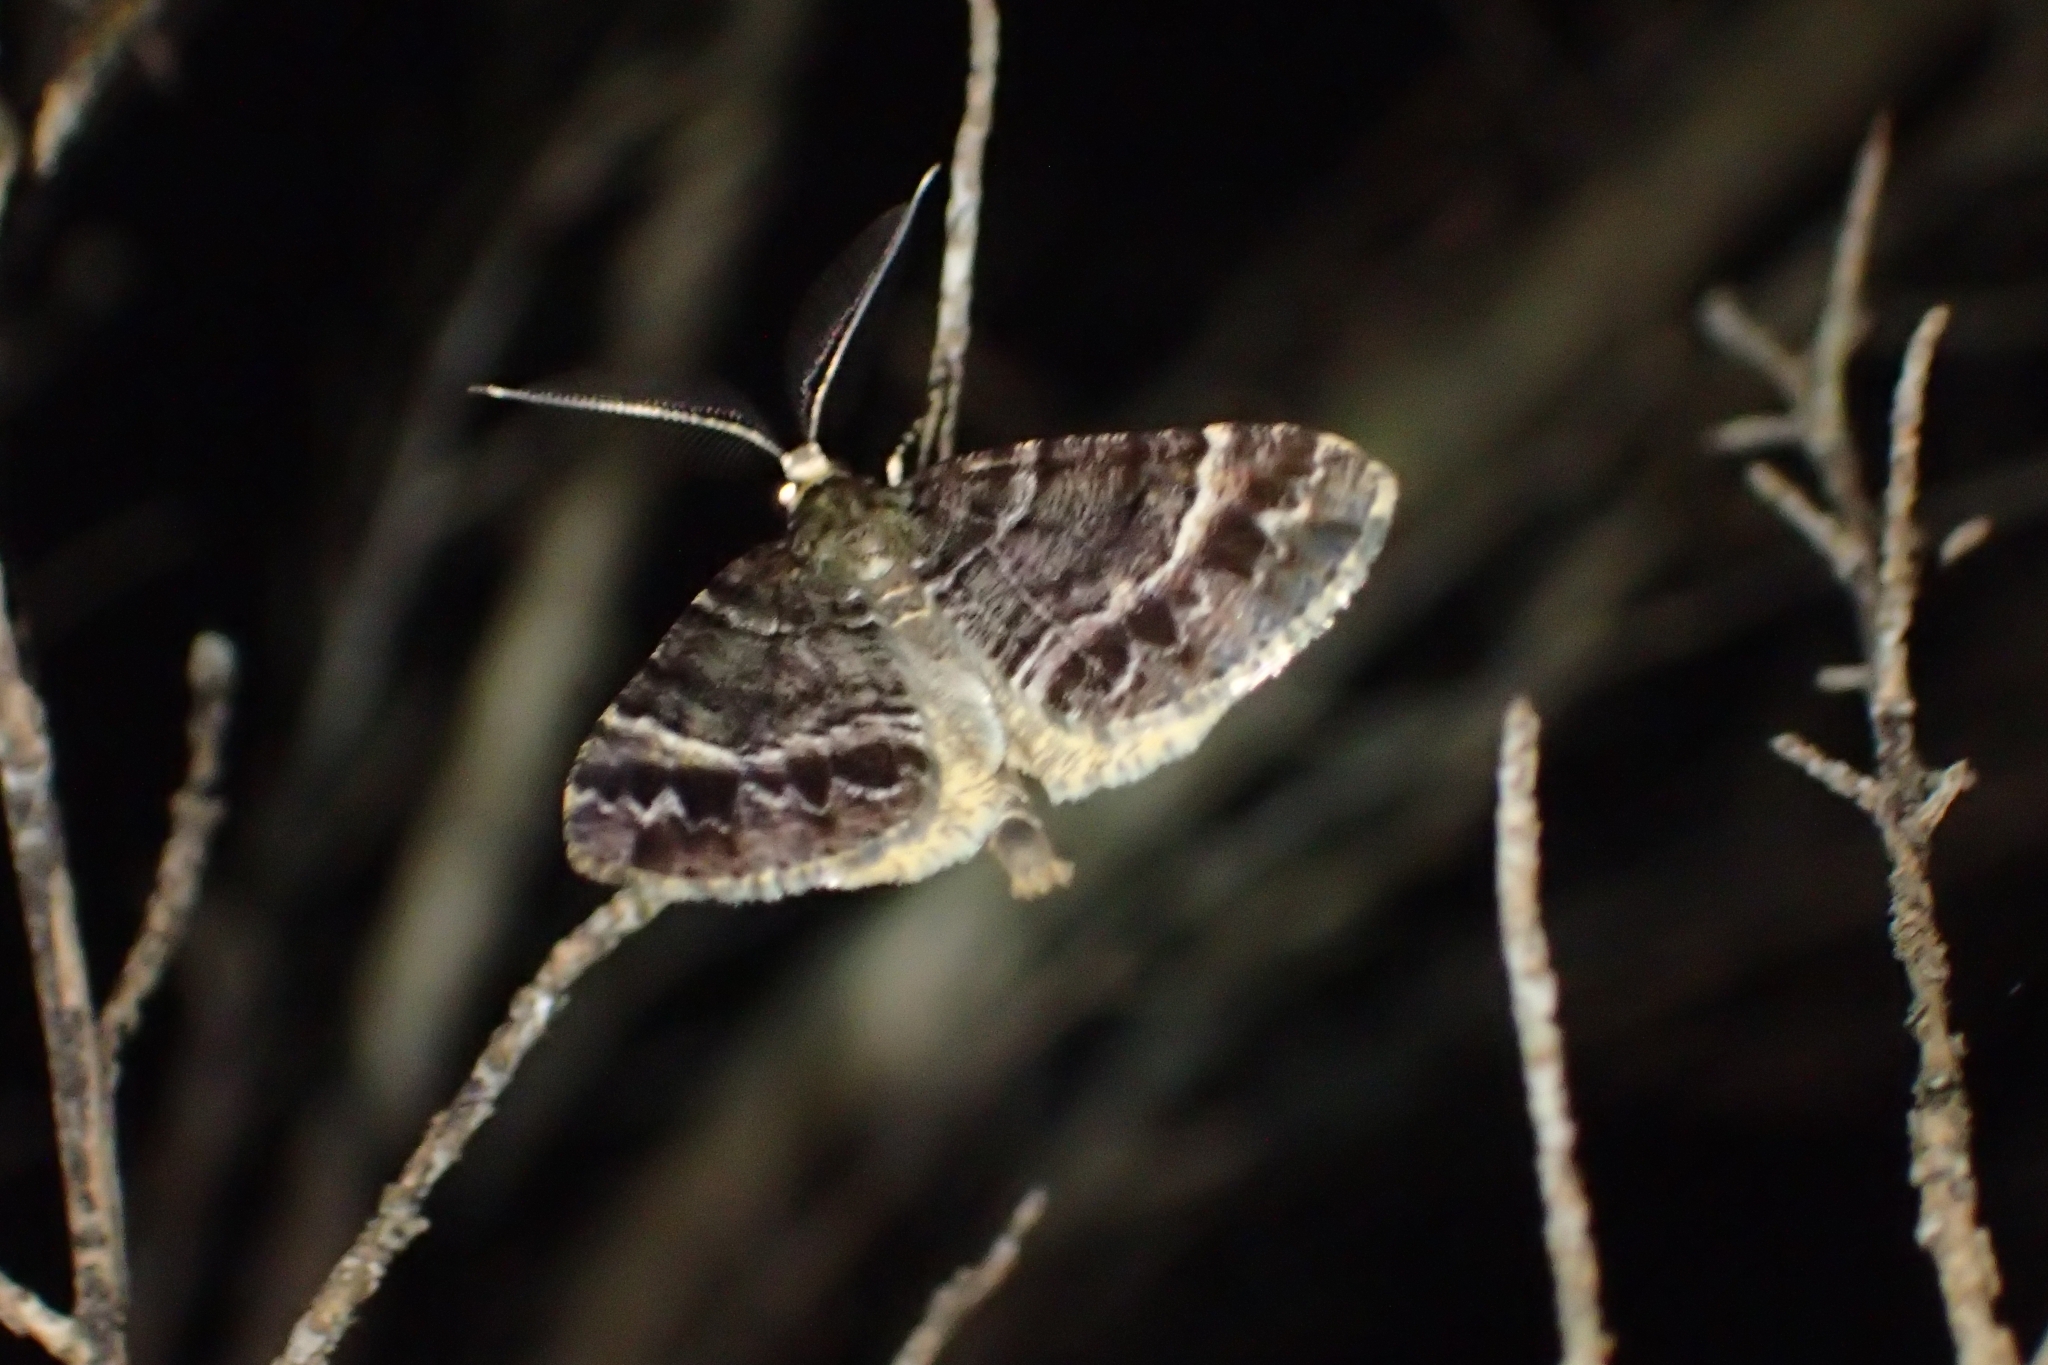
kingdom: Animalia
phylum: Arthropoda
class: Insecta
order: Lepidoptera
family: Geometridae
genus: Pseudocoremia
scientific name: Pseudocoremia productata
